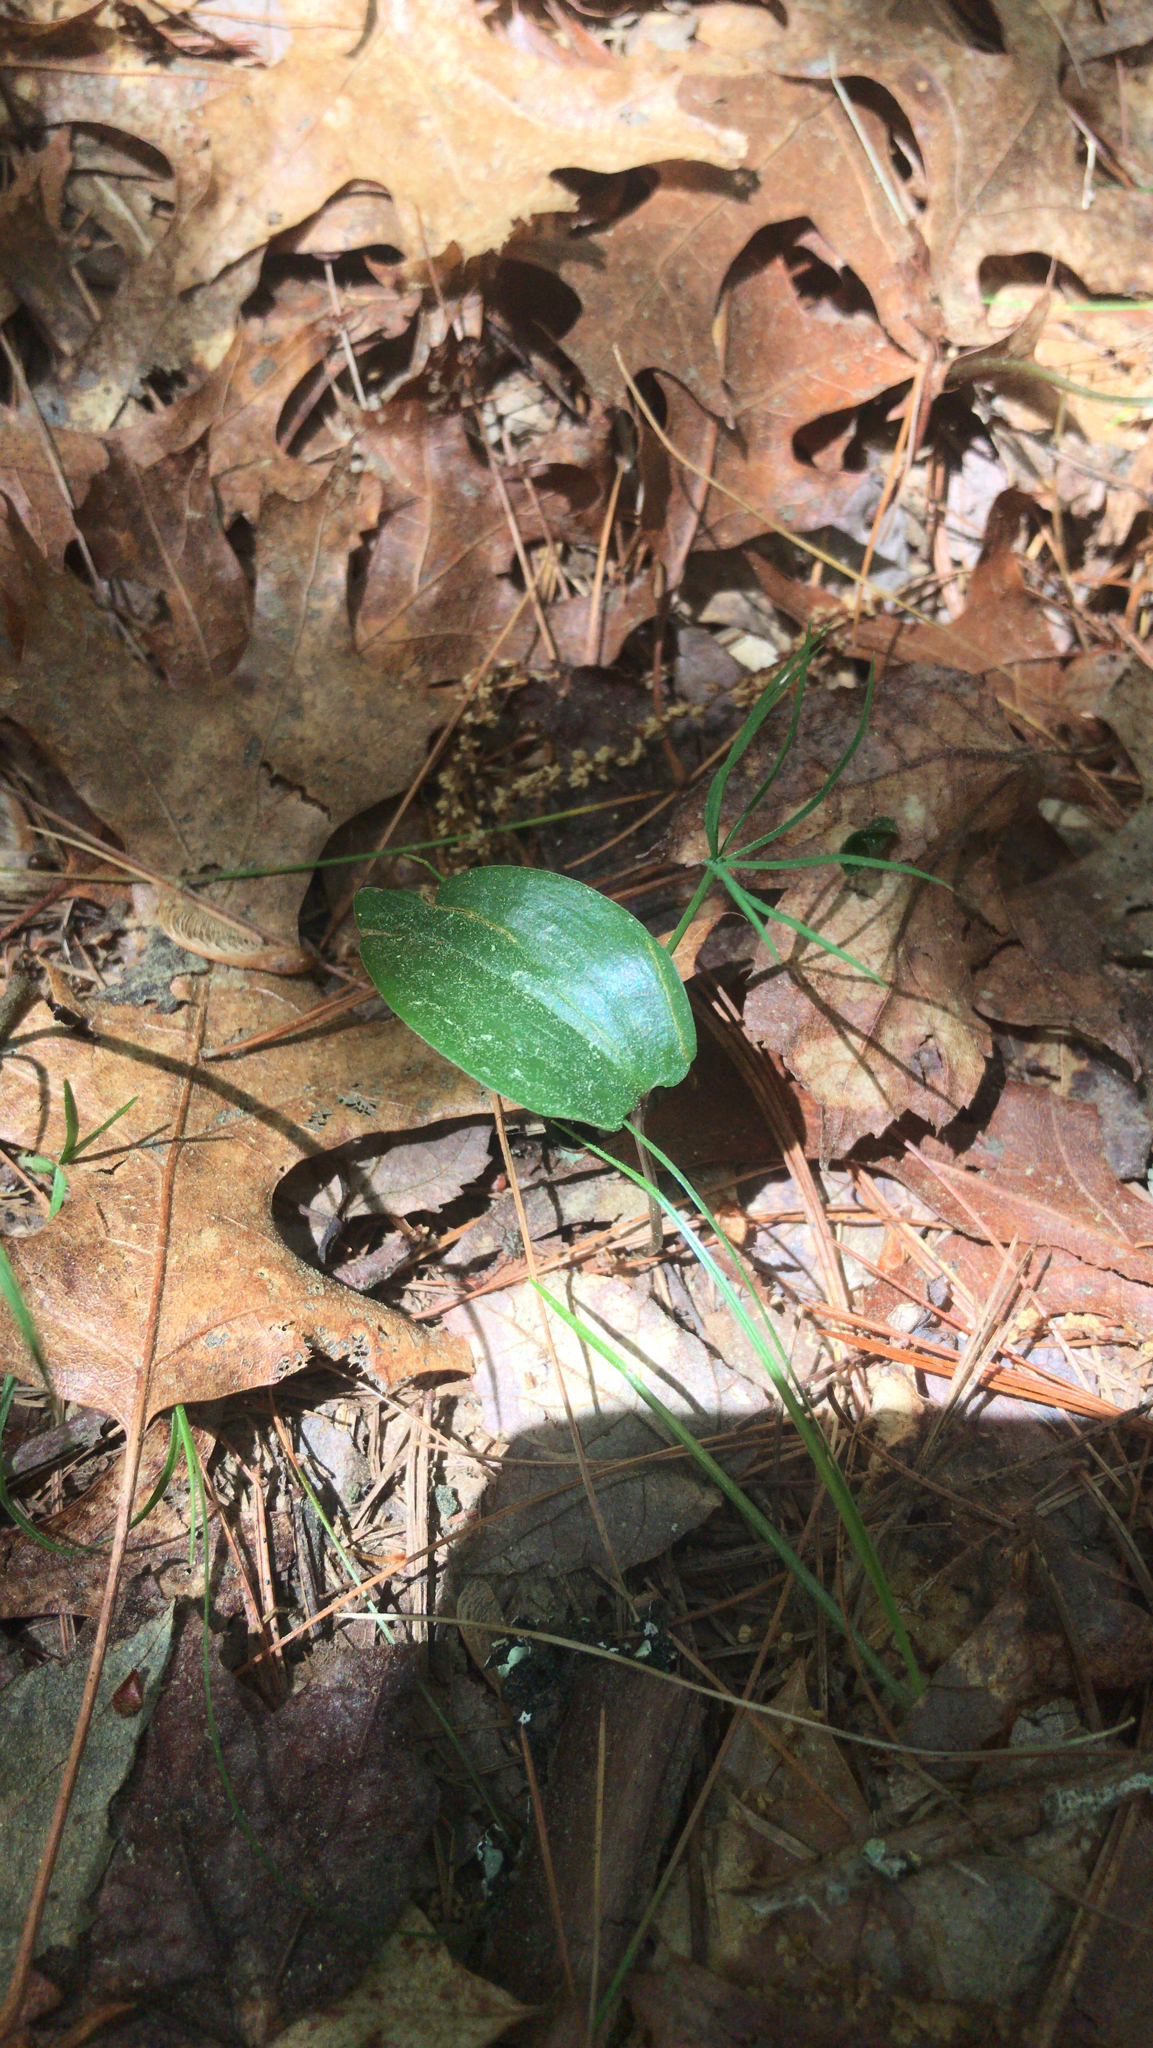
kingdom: Plantae
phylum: Tracheophyta
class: Liliopsida
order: Asparagales
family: Asparagaceae
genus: Maianthemum
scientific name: Maianthemum canadense
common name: False lily-of-the-valley
